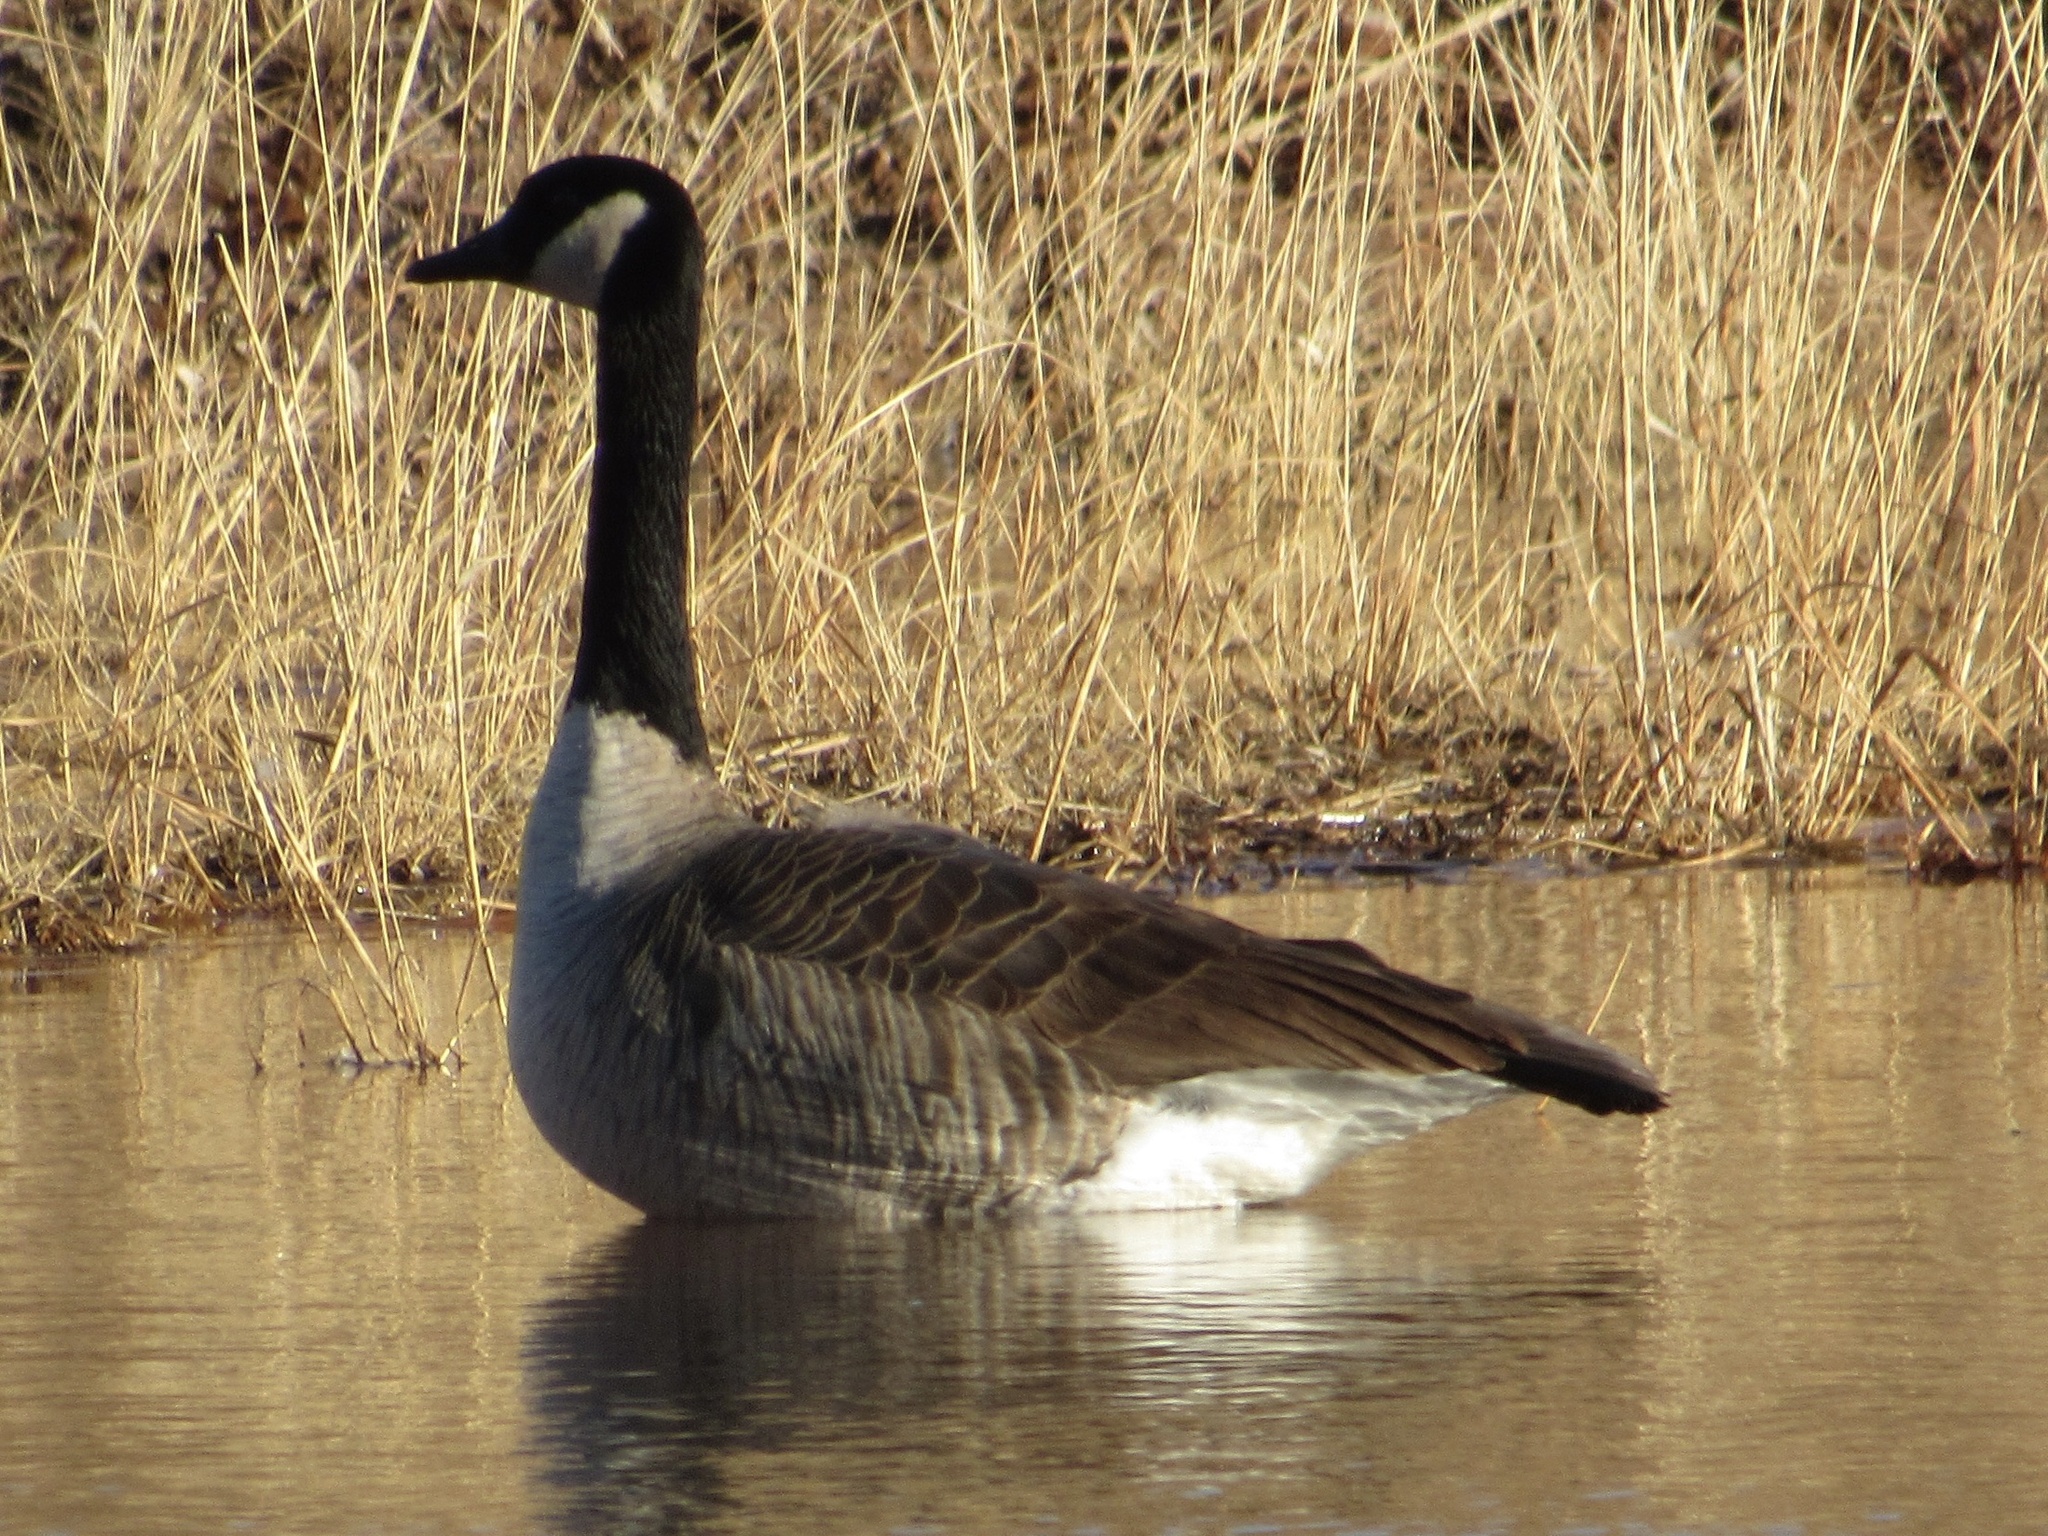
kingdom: Animalia
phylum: Chordata
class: Aves
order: Anseriformes
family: Anatidae
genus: Branta
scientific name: Branta canadensis
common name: Canada goose
